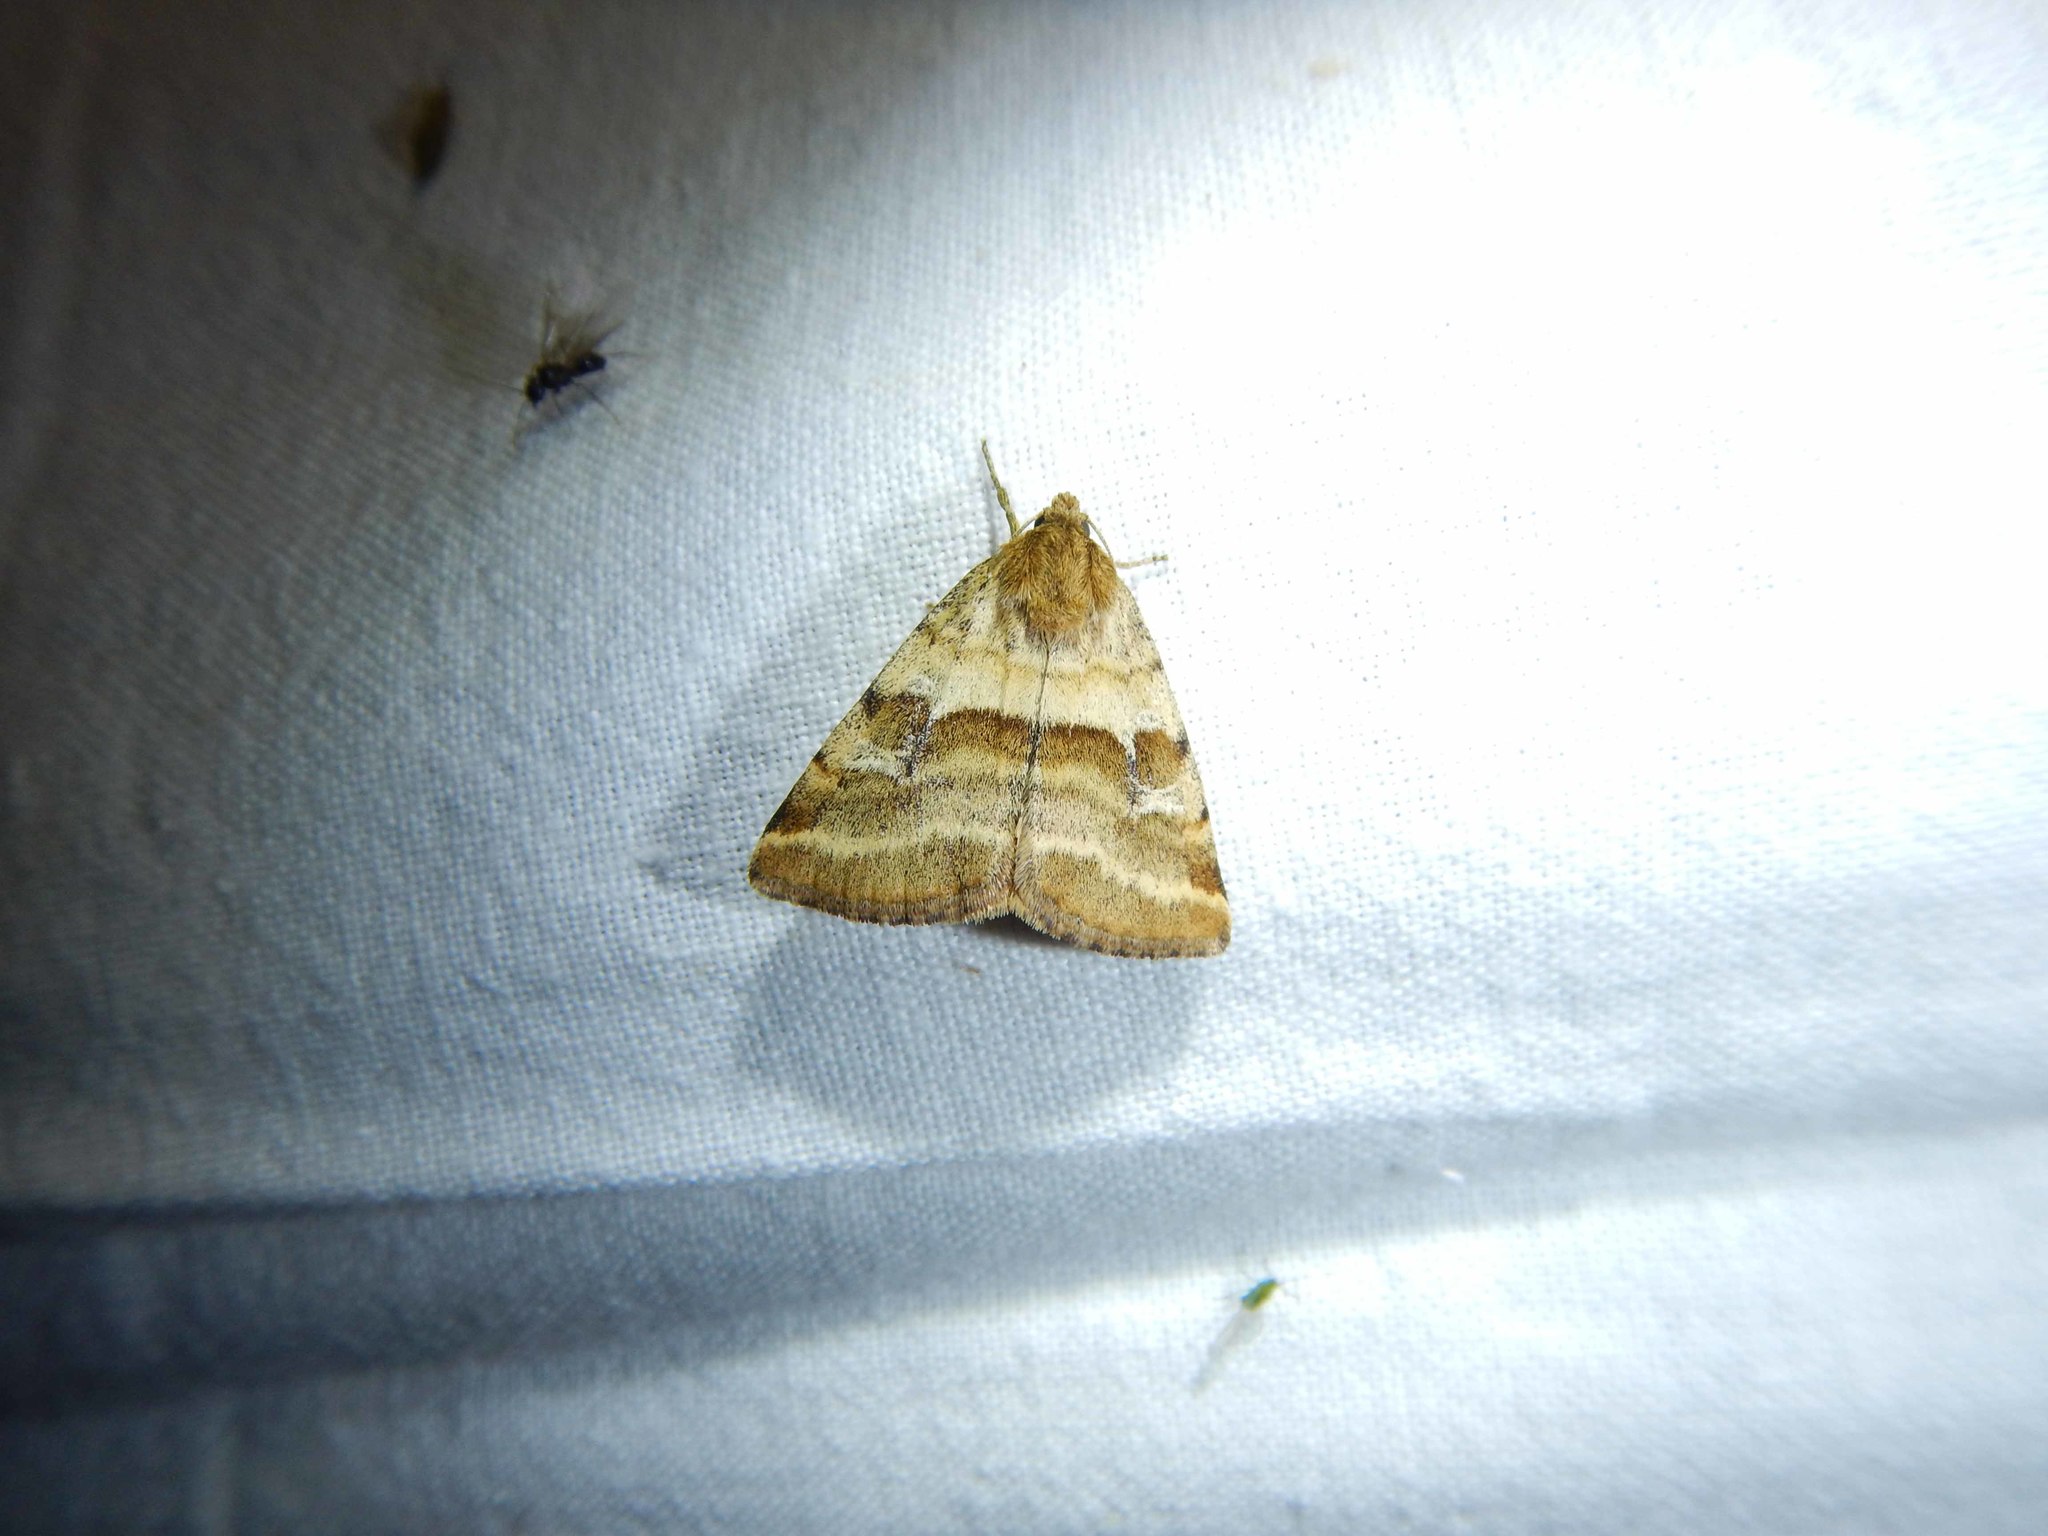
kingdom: Animalia
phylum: Arthropoda
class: Insecta
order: Lepidoptera
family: Noctuidae
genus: Synthymia
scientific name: Synthymia fixa
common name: Goldwing
